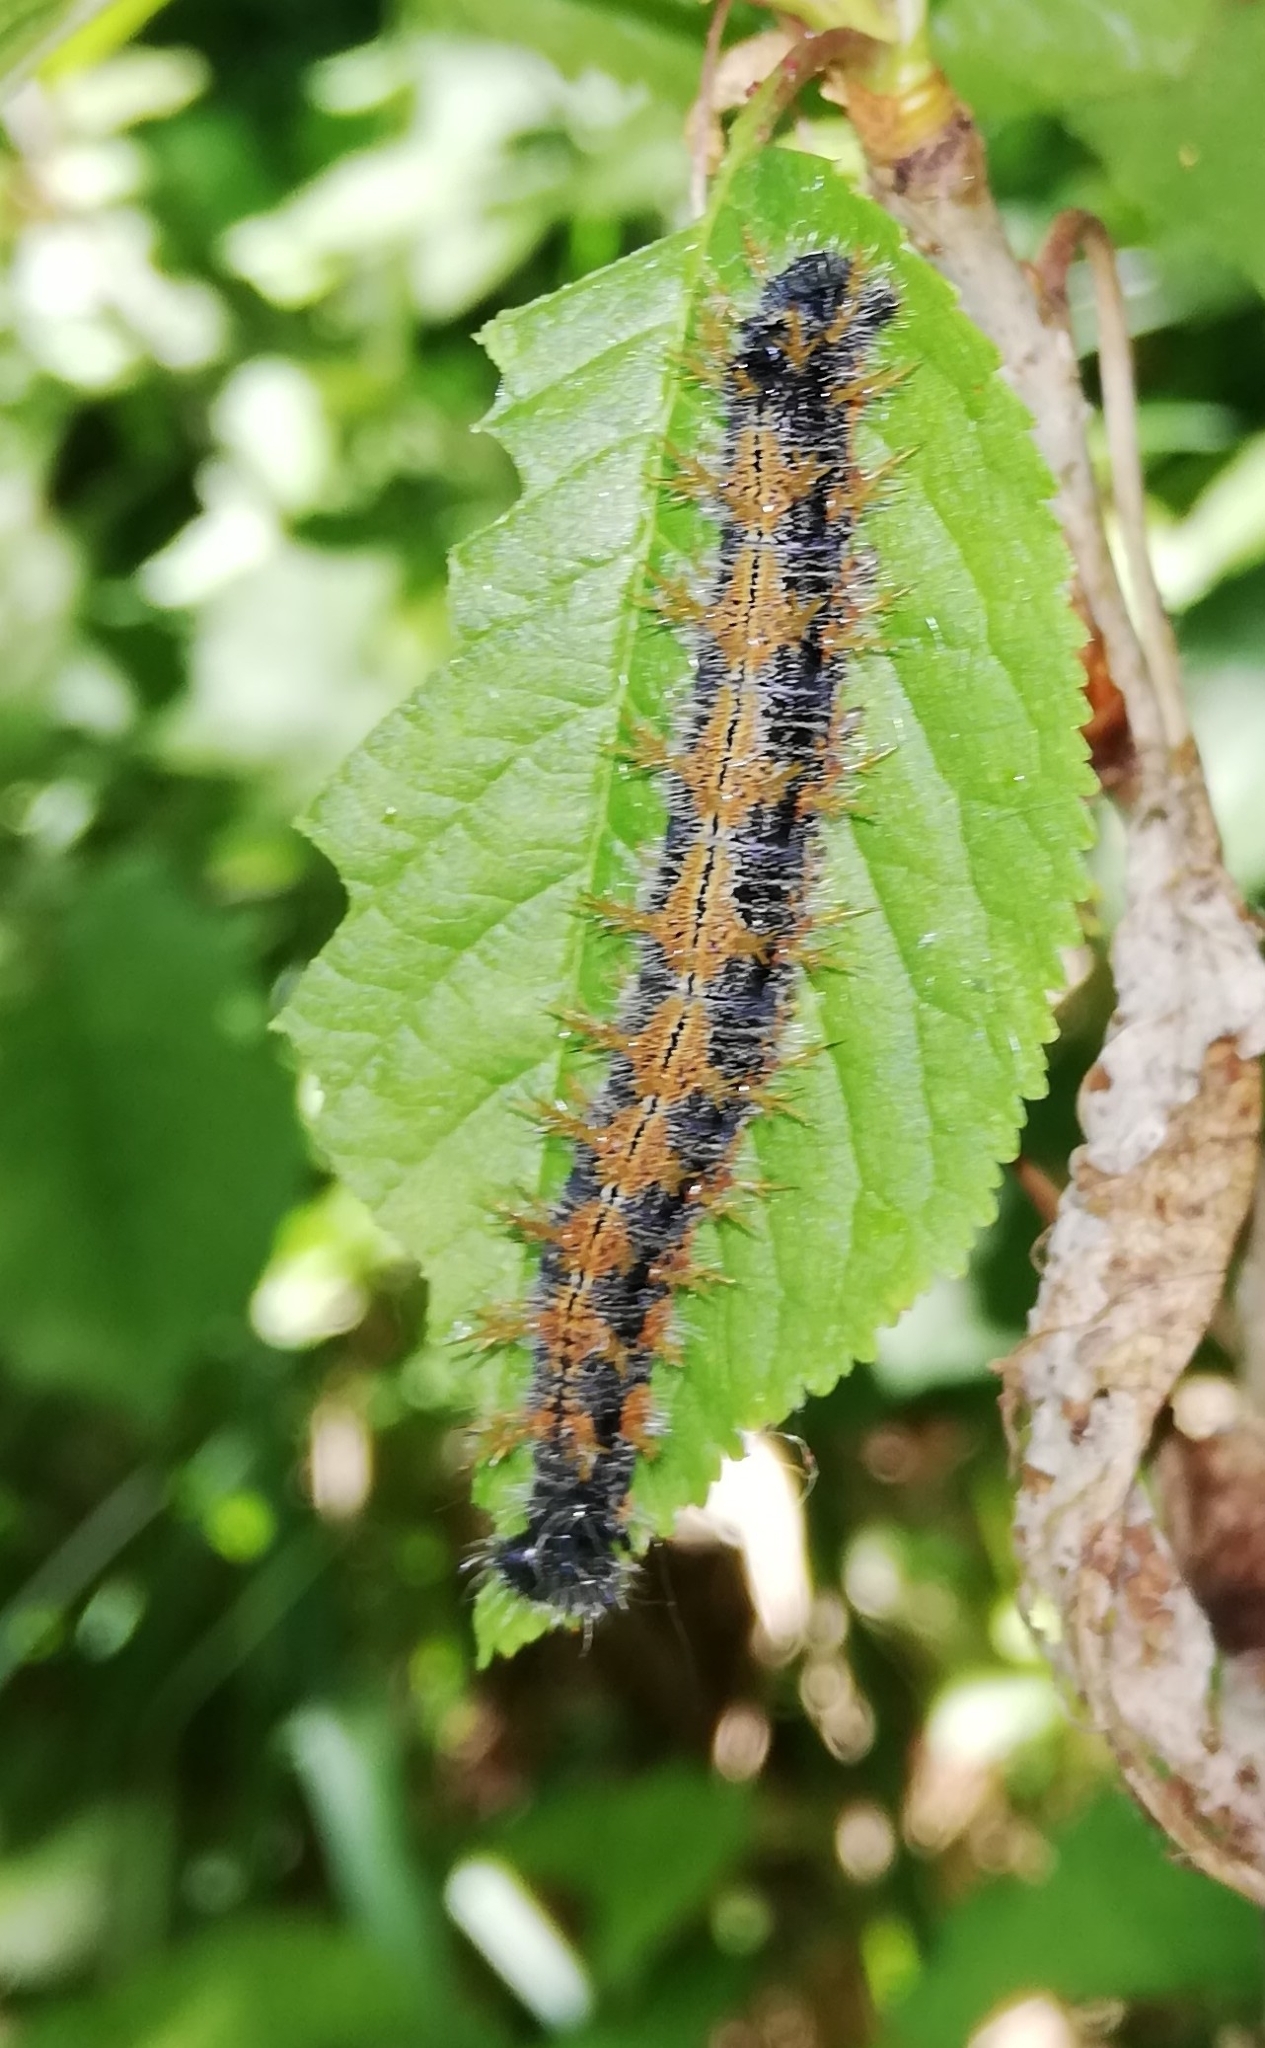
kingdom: Animalia
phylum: Arthropoda
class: Insecta
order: Lepidoptera
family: Nymphalidae
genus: Nymphalis
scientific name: Nymphalis polychloros
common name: Large tortoiseshell
